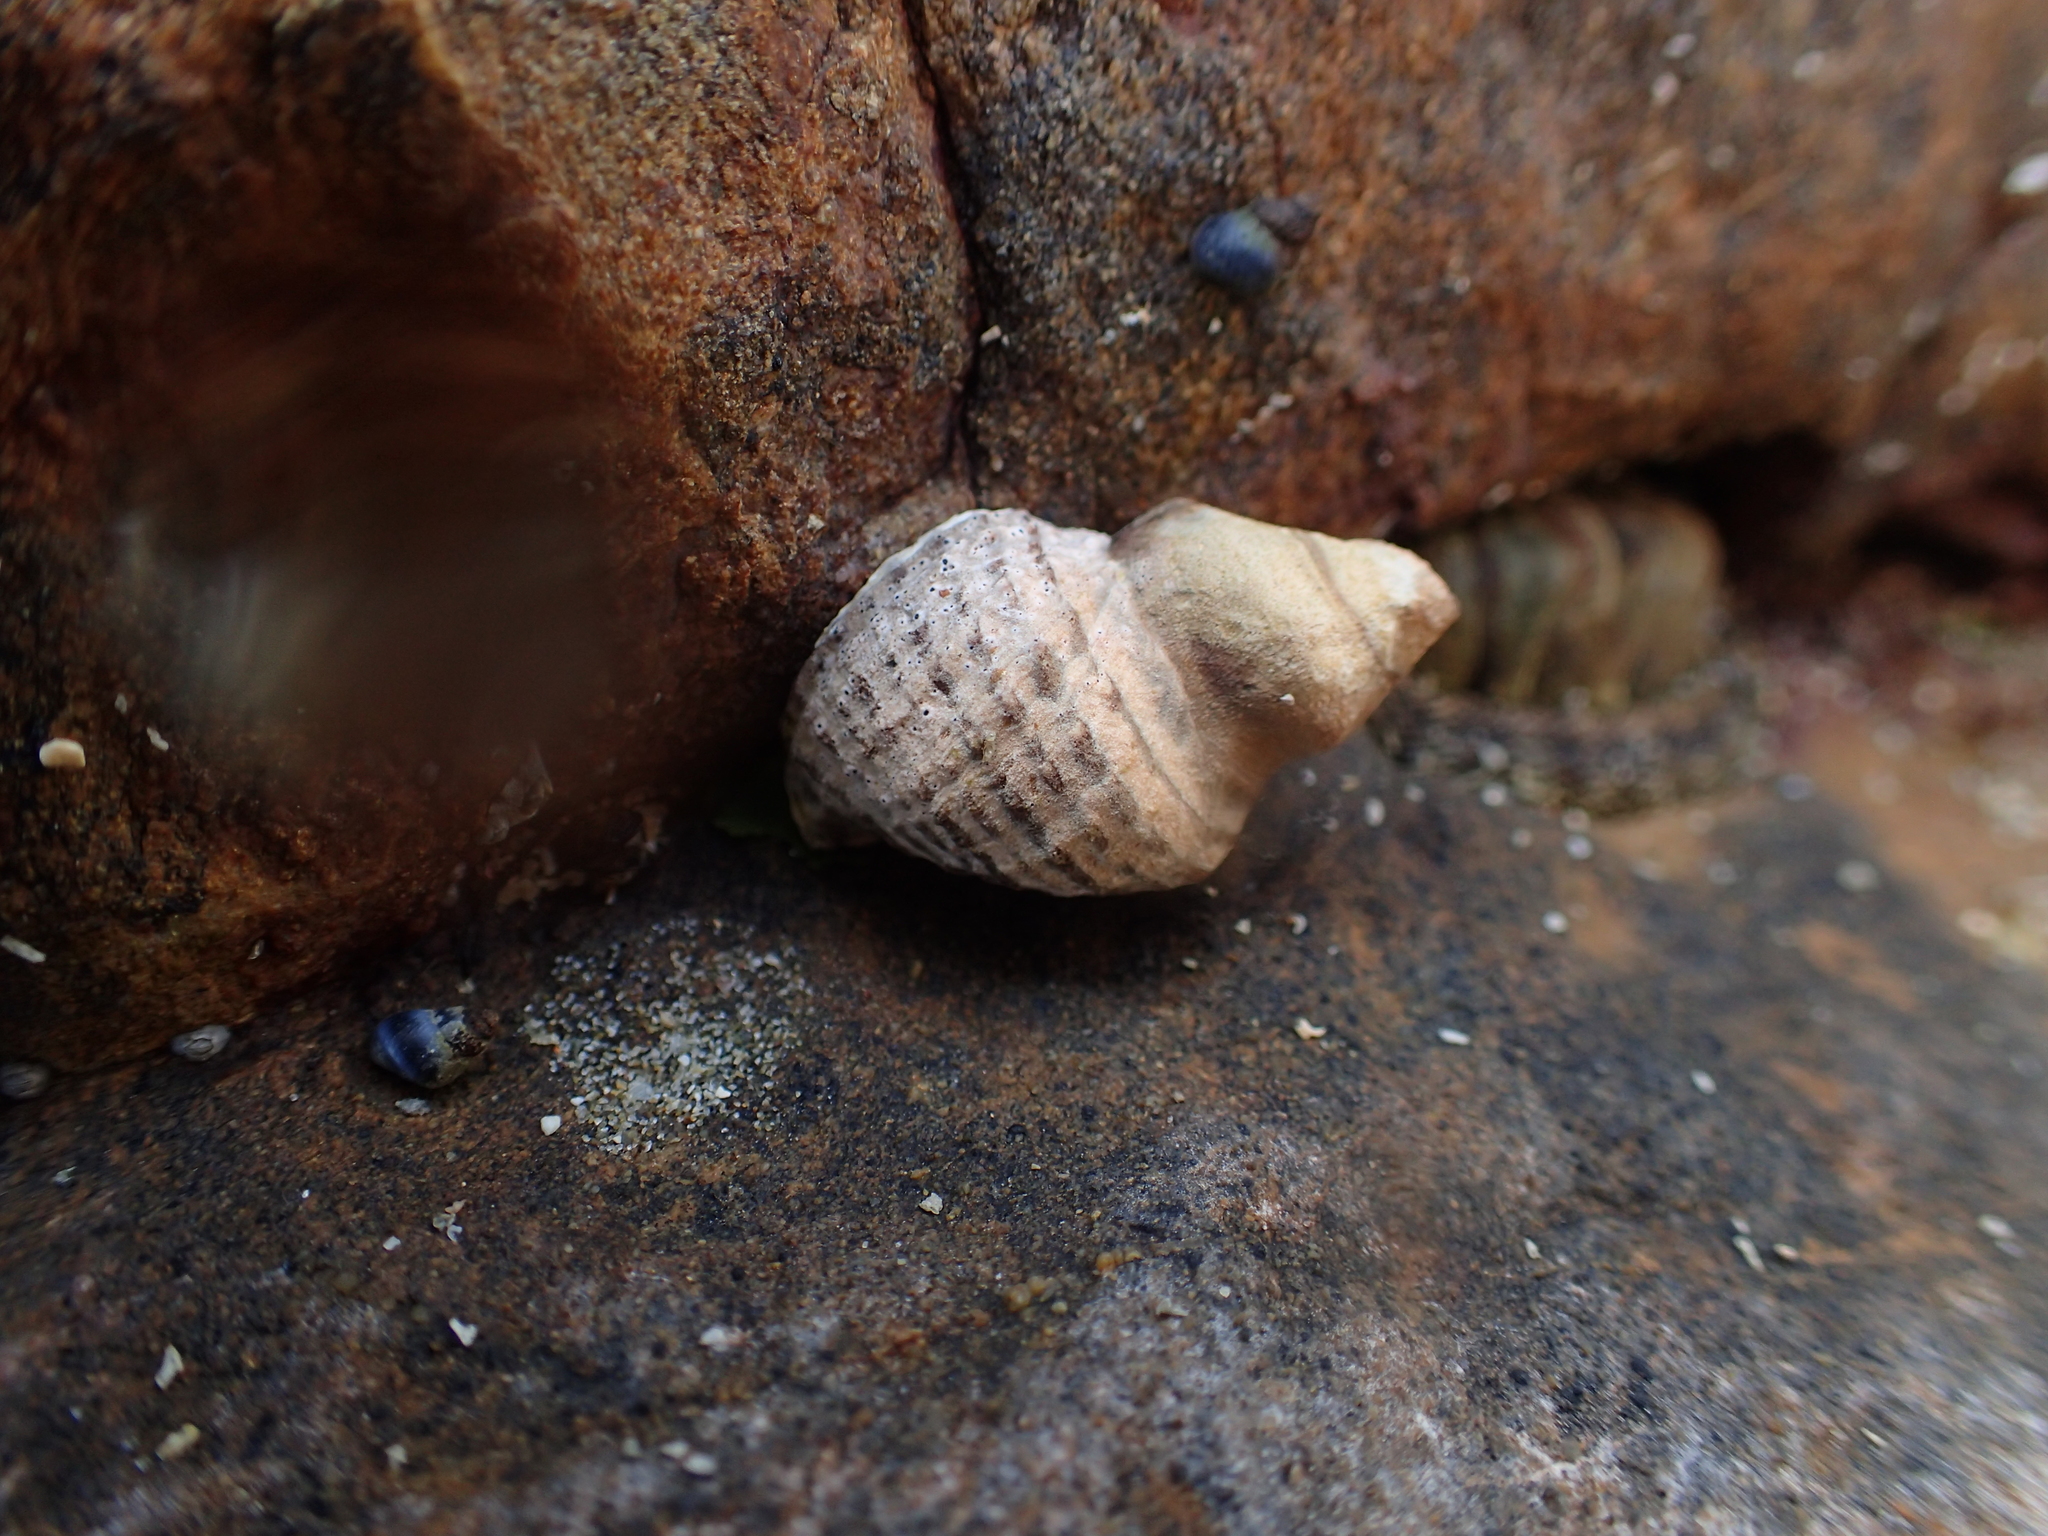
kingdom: Animalia
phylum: Mollusca
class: Gastropoda
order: Neogastropoda
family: Muricidae
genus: Haustrum
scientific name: Haustrum scobina
